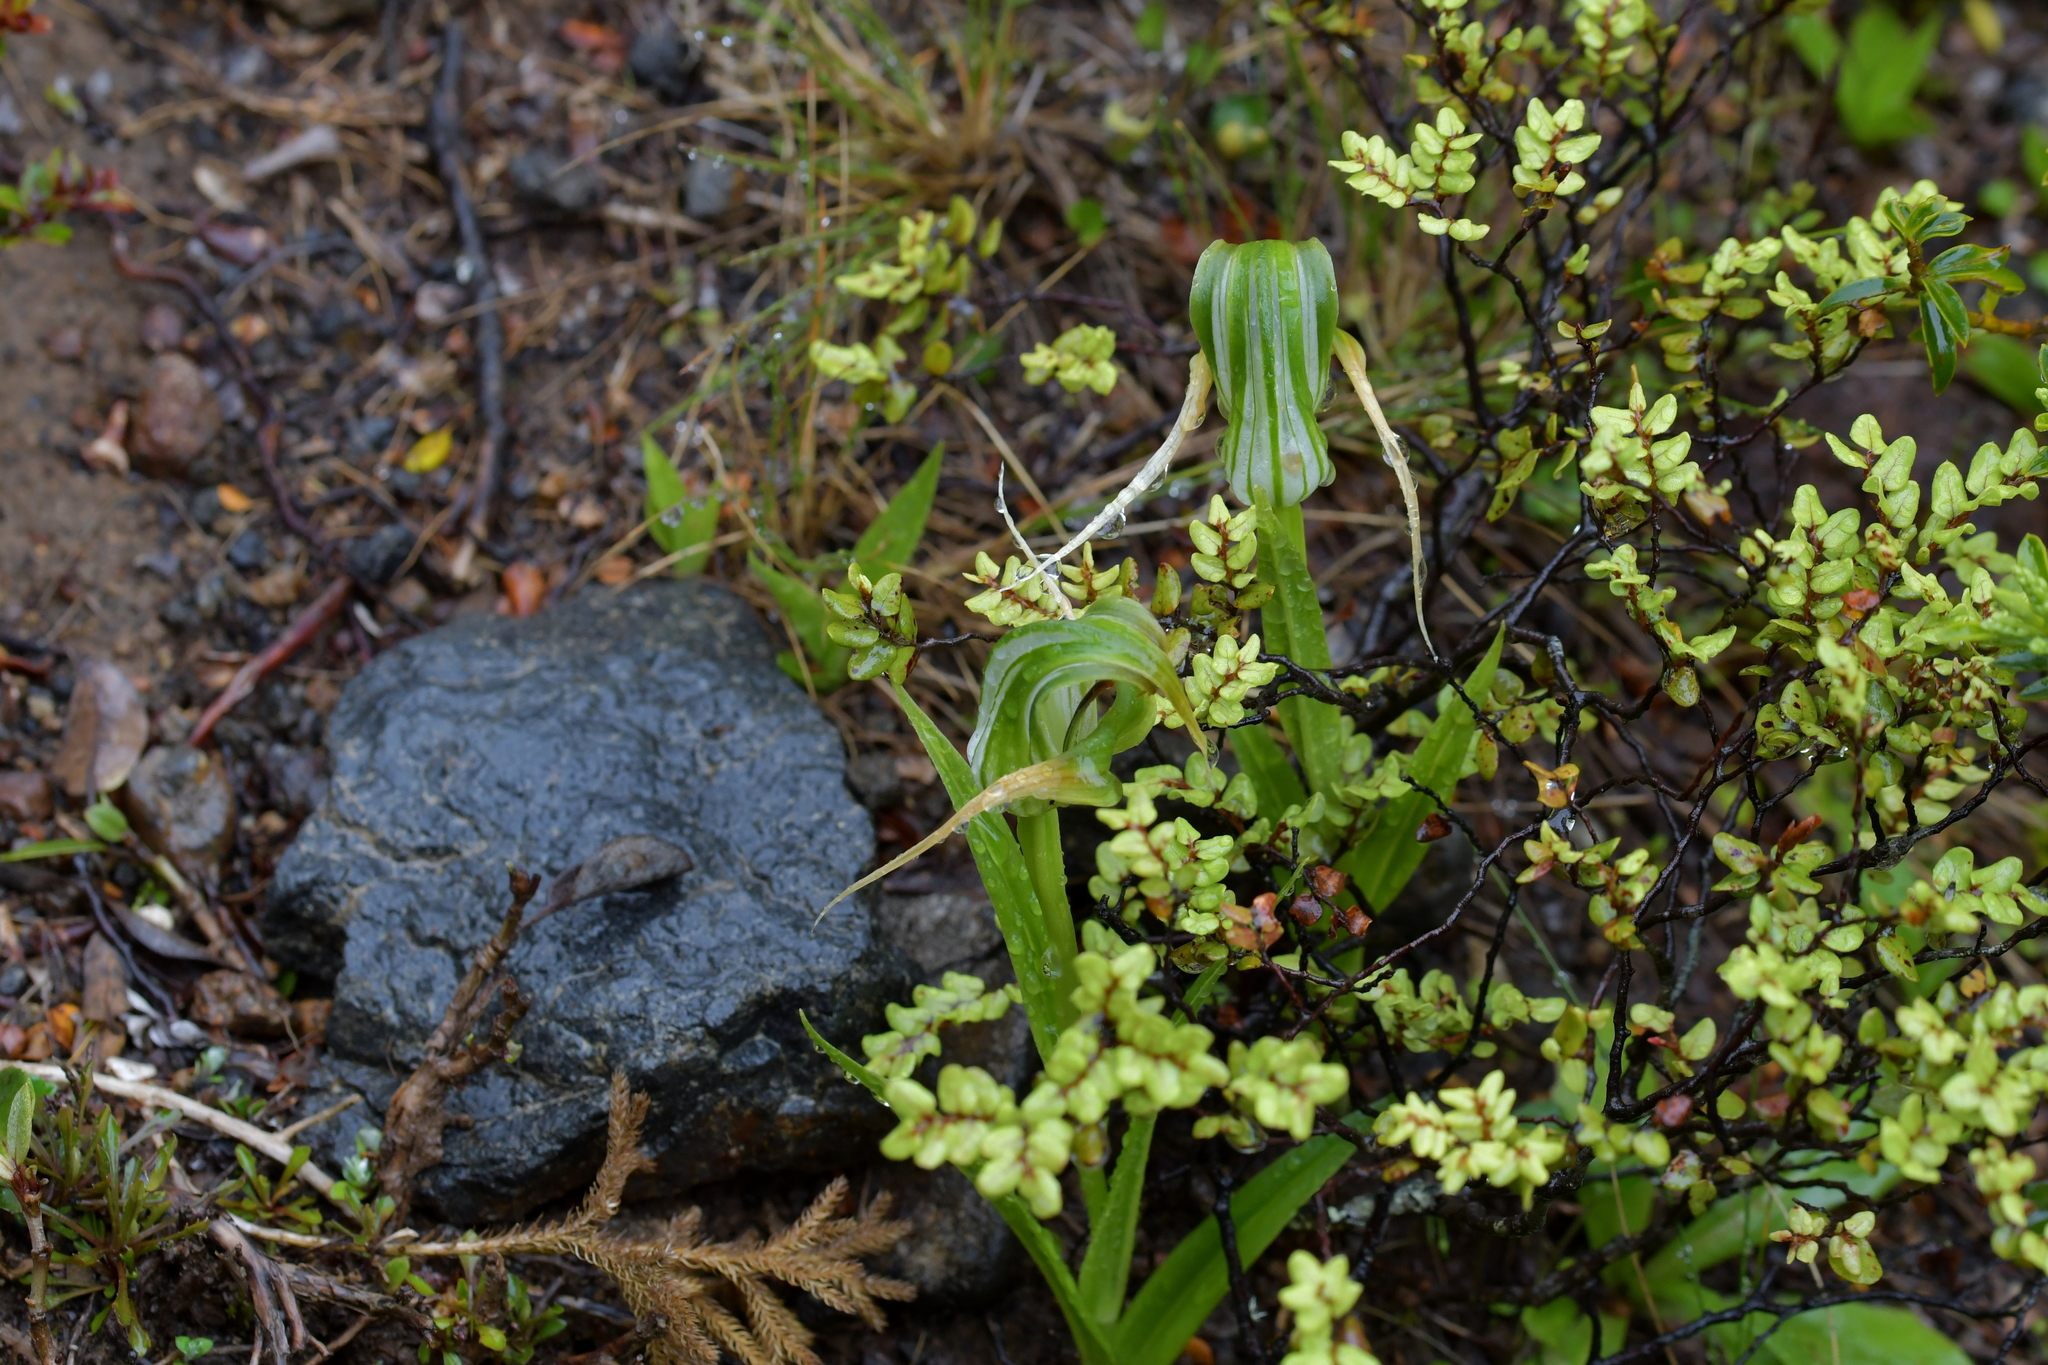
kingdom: Plantae
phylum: Tracheophyta
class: Liliopsida
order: Asparagales
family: Orchidaceae
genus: Pterostylis
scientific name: Pterostylis patens
